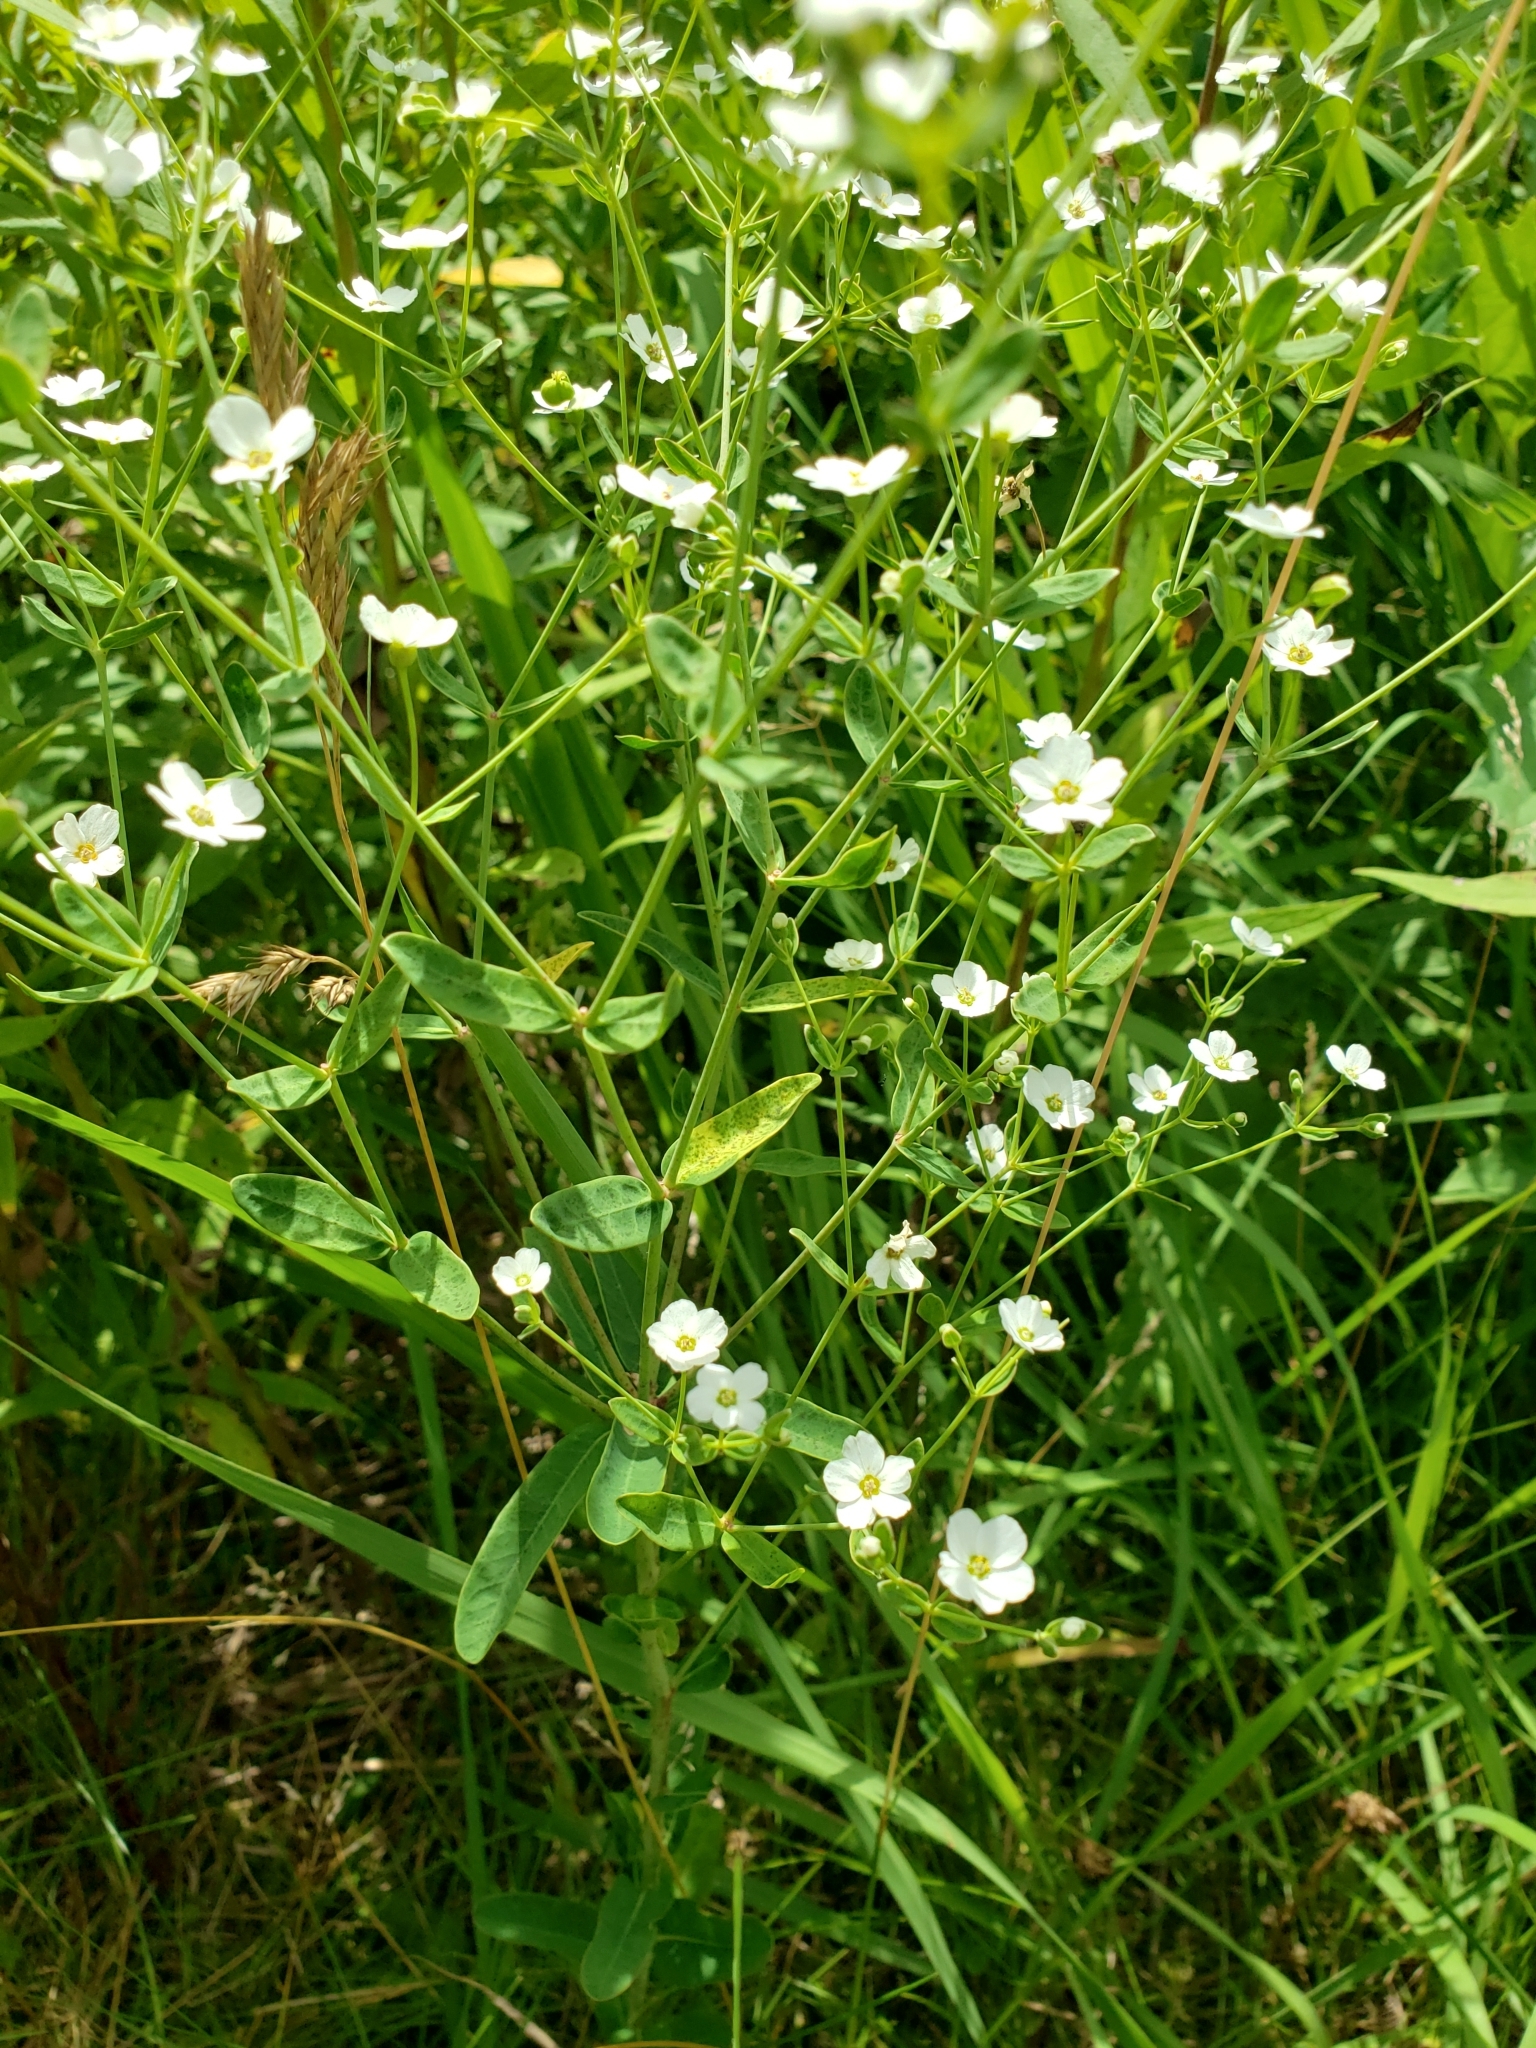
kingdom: Plantae
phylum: Tracheophyta
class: Magnoliopsida
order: Malpighiales
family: Euphorbiaceae
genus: Euphorbia
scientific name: Euphorbia corollata
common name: Flowering spurge
